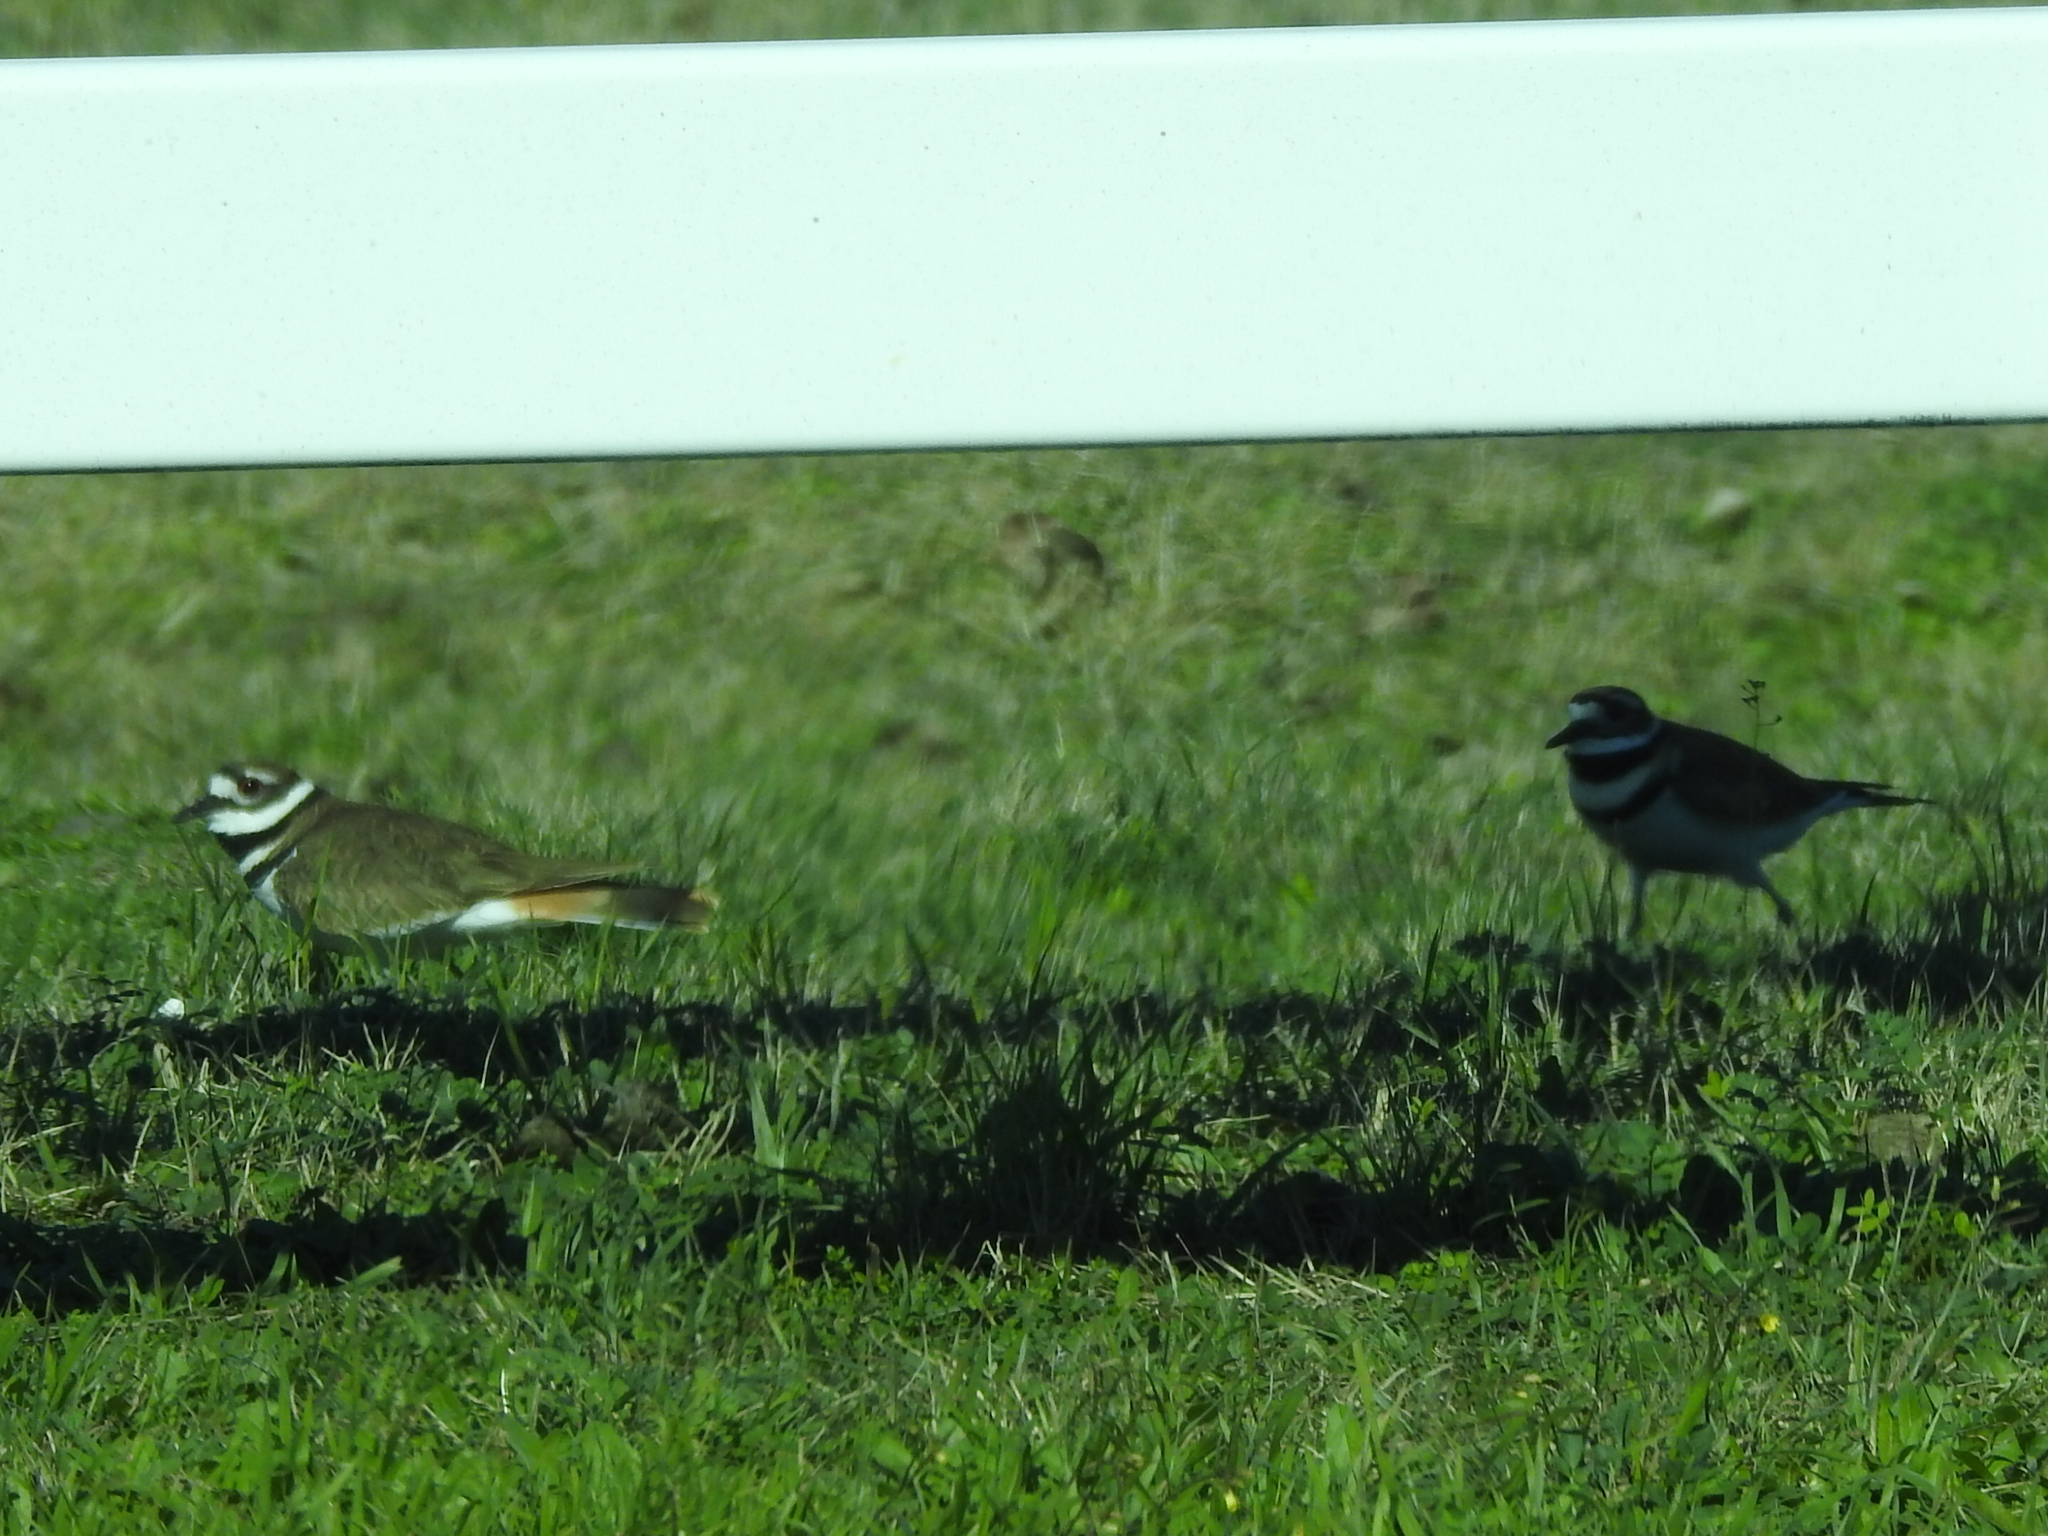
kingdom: Animalia
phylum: Chordata
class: Aves
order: Charadriiformes
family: Charadriidae
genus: Charadrius
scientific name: Charadrius vociferus
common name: Killdeer
